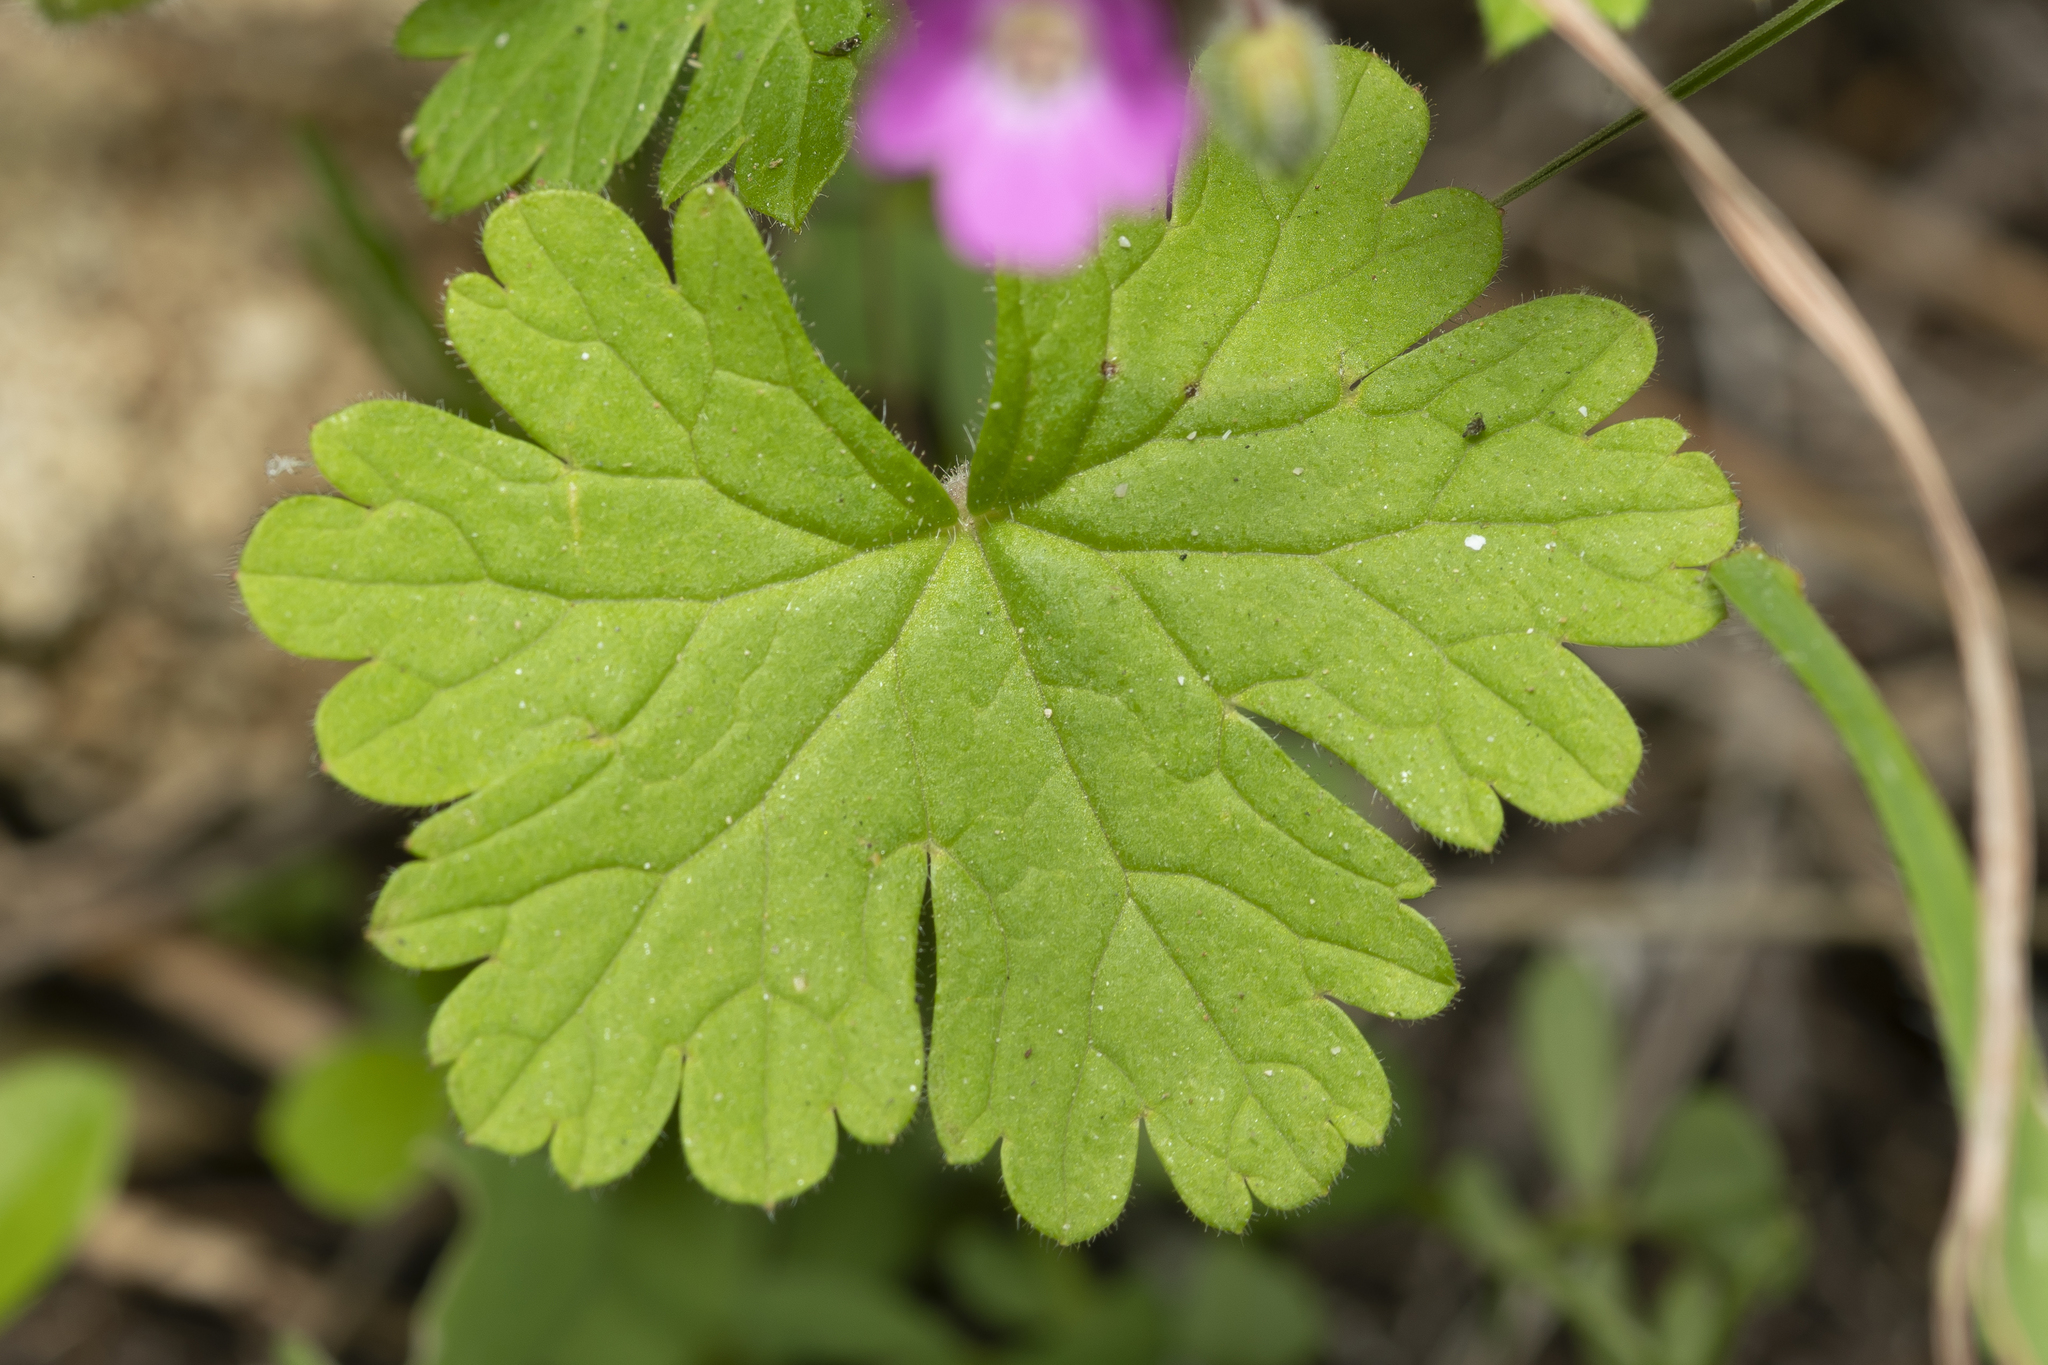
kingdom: Plantae
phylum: Tracheophyta
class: Magnoliopsida
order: Geraniales
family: Geraniaceae
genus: Geranium
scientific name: Geranium rotundifolium
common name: Round-leaved crane's-bill
